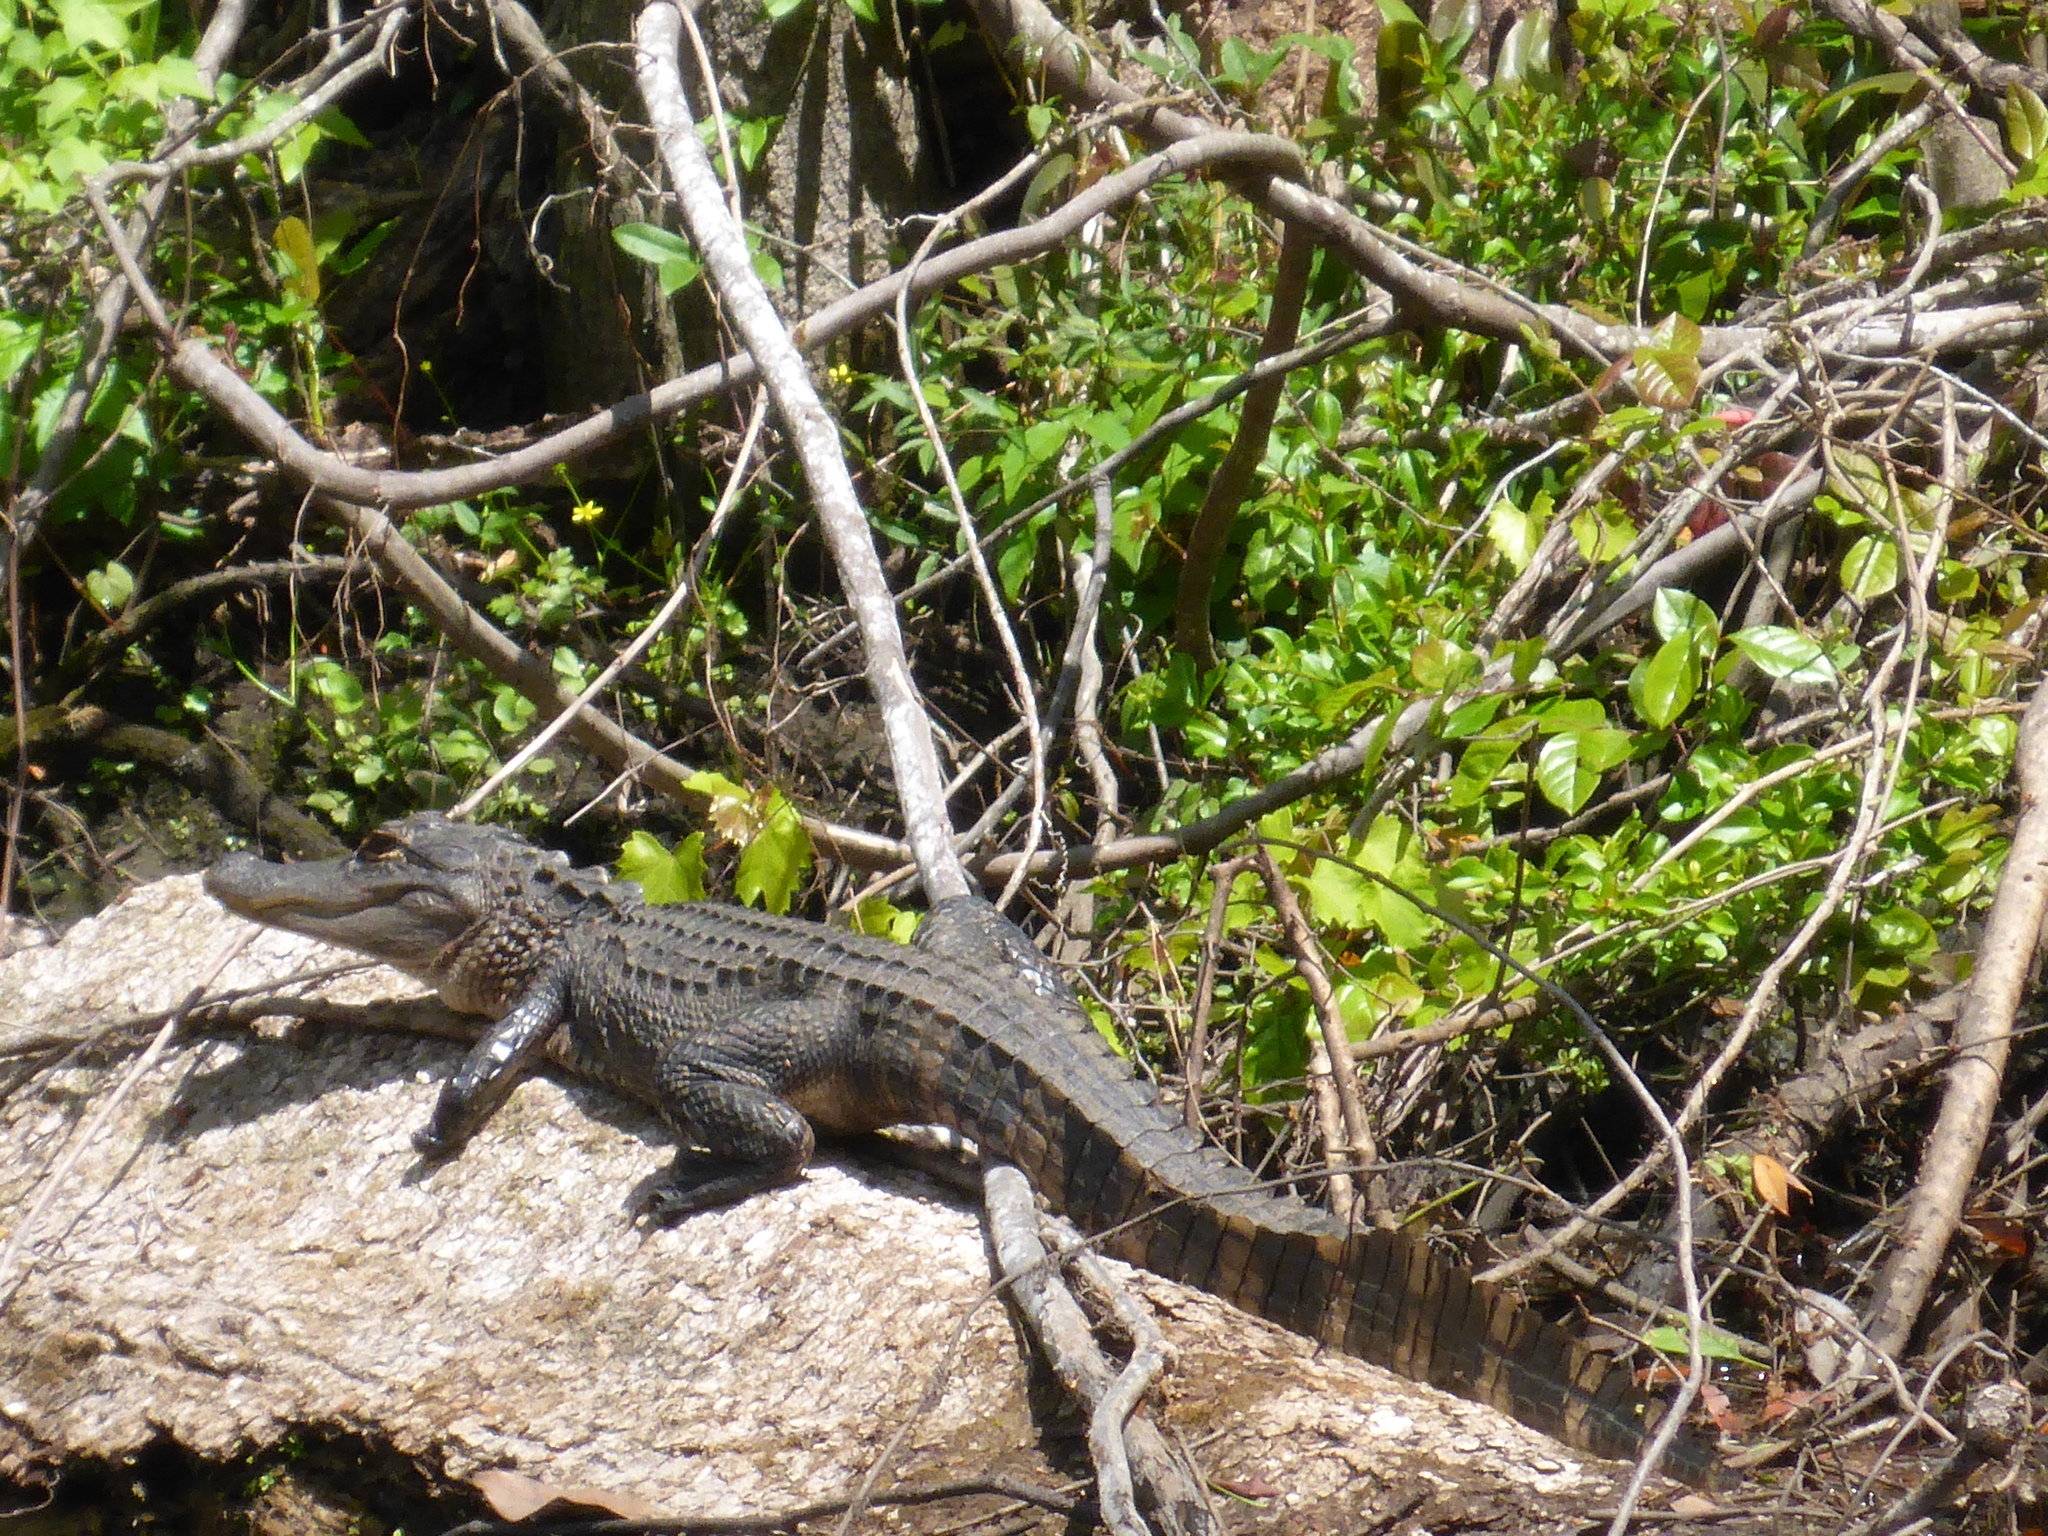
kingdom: Animalia
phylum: Chordata
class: Crocodylia
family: Alligatoridae
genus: Alligator
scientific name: Alligator mississippiensis
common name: American alligator
